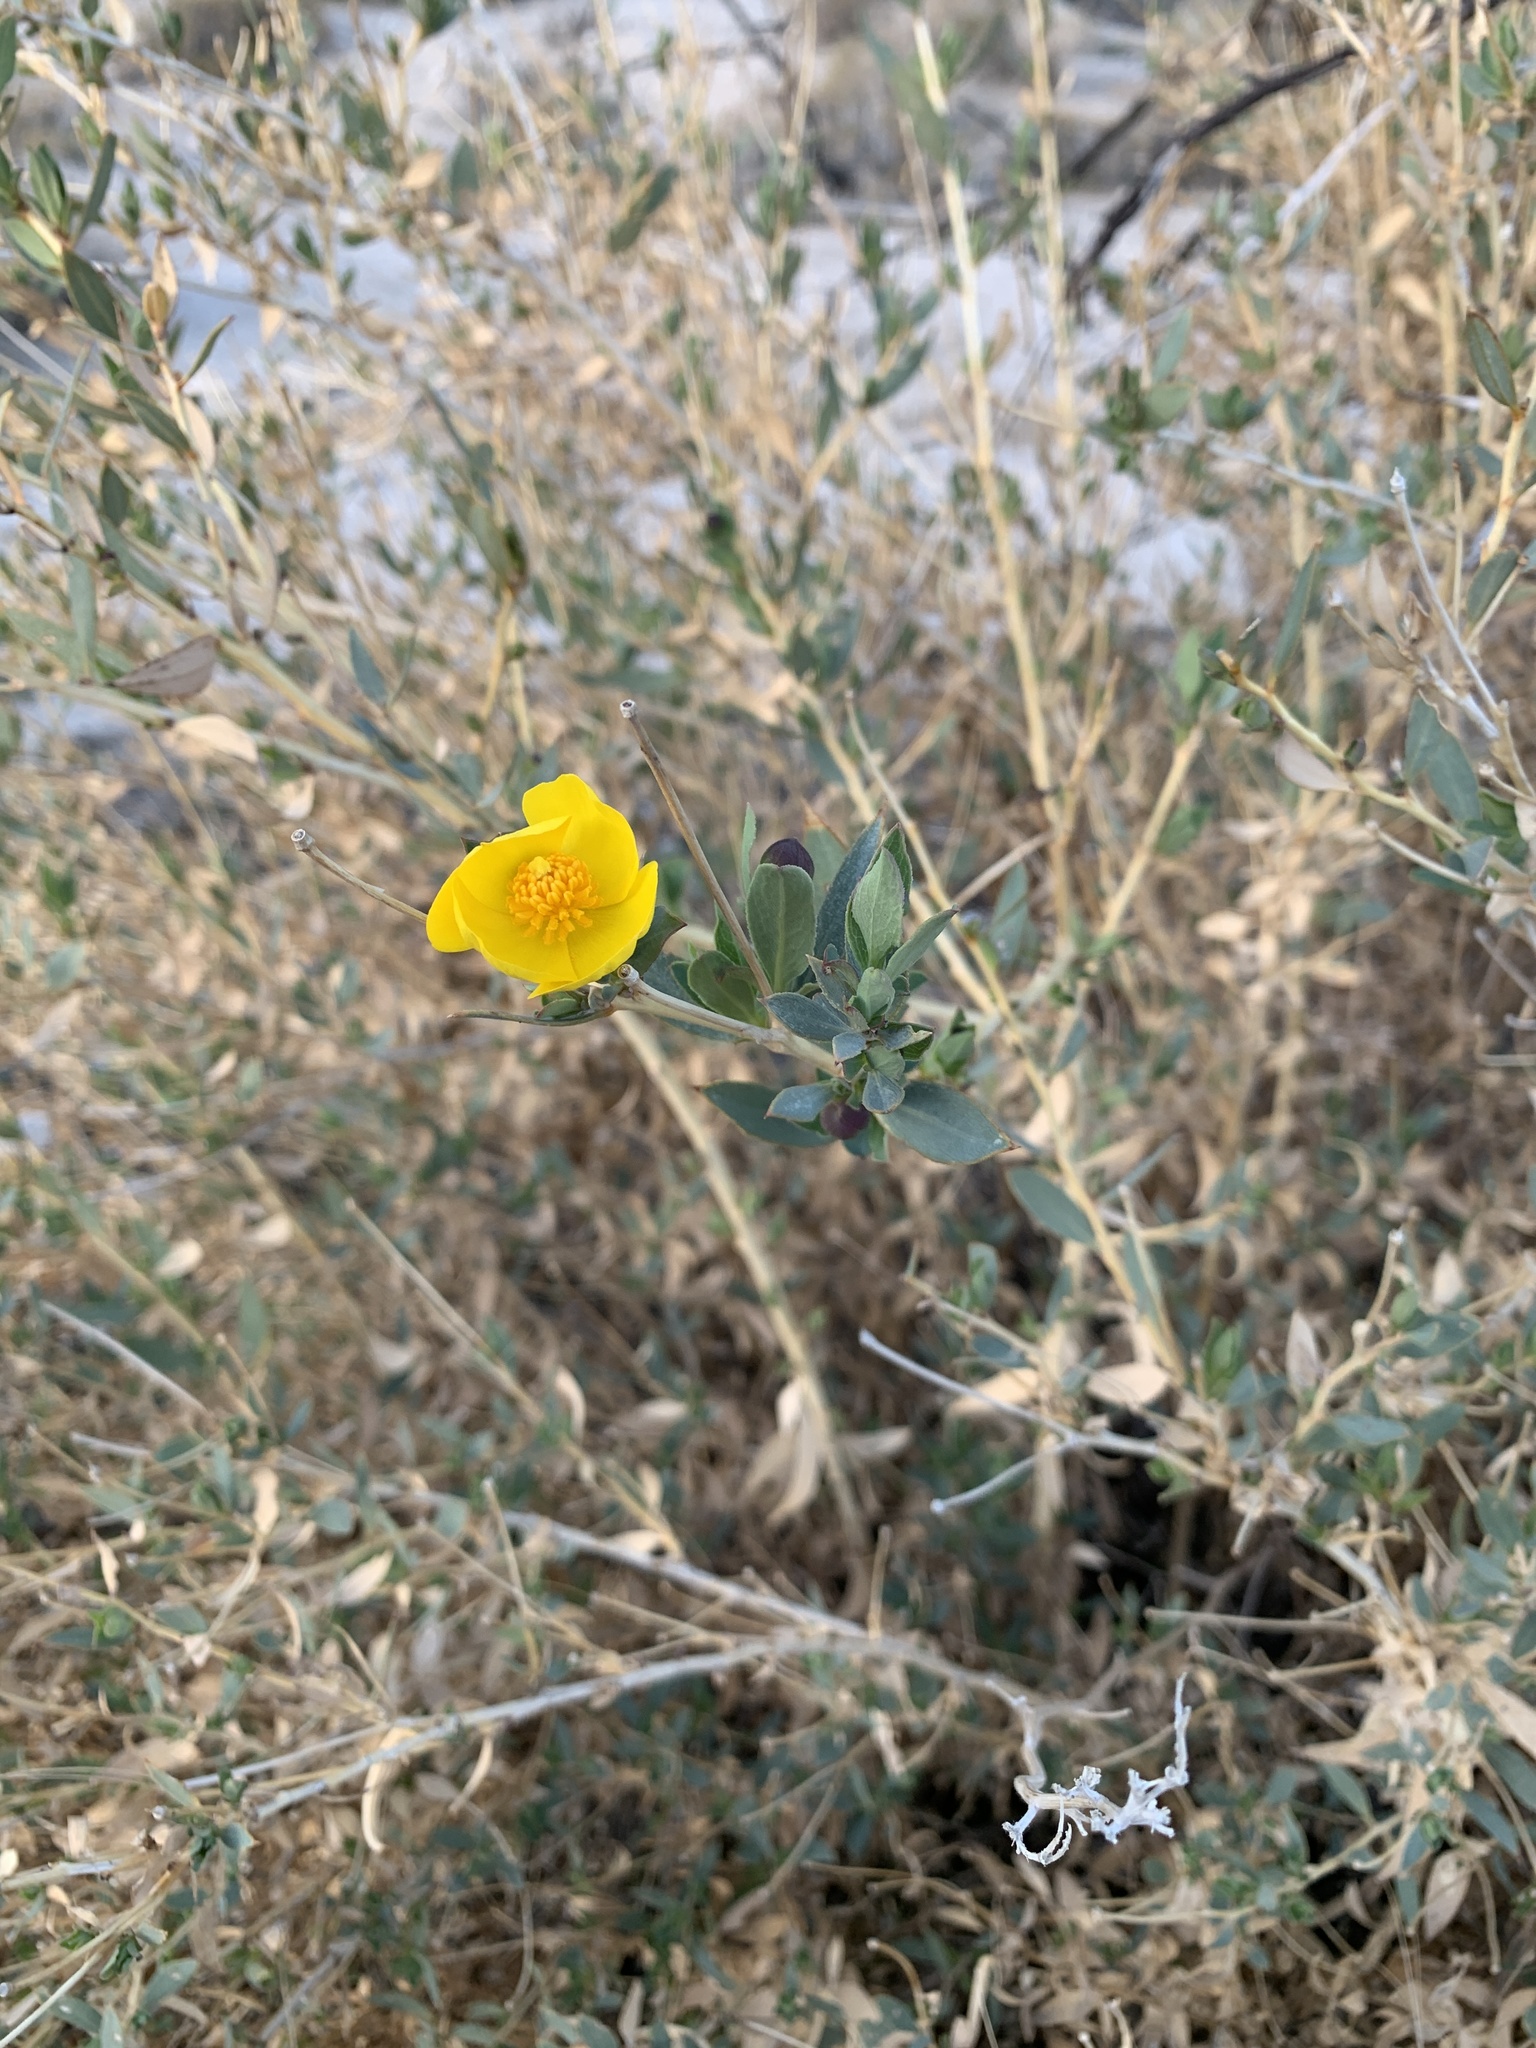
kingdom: Plantae
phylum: Tracheophyta
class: Magnoliopsida
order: Ranunculales
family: Papaveraceae
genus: Dendromecon
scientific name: Dendromecon rigida
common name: Tree poppy
